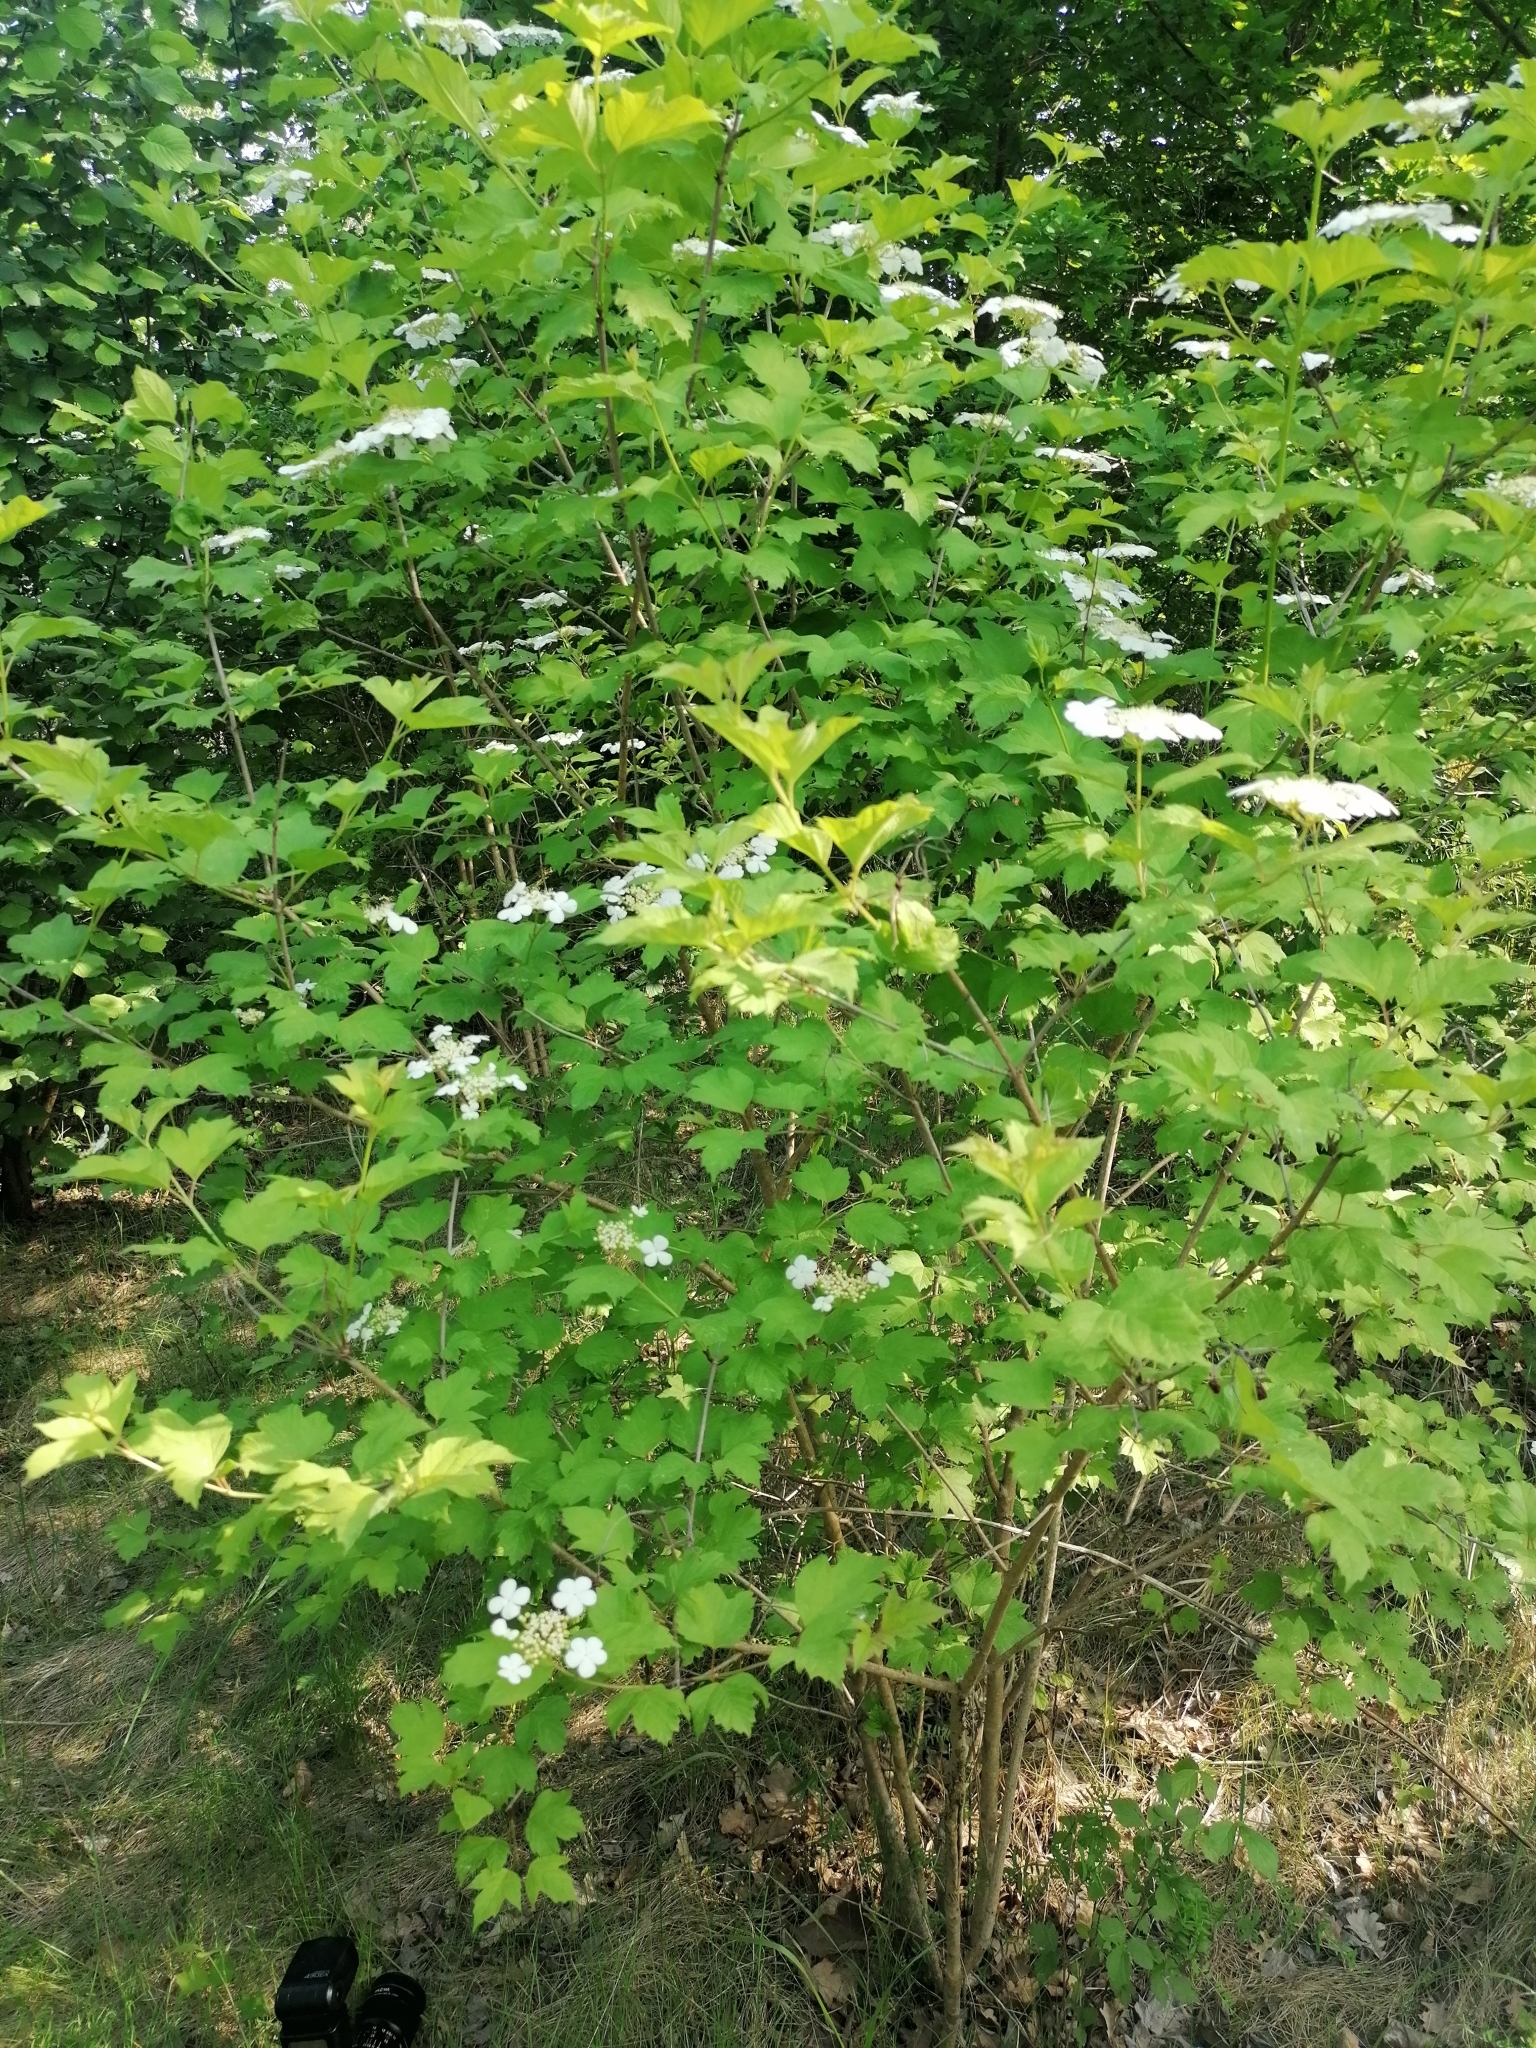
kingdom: Plantae
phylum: Tracheophyta
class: Magnoliopsida
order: Dipsacales
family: Viburnaceae
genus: Viburnum
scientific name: Viburnum opulus
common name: Guelder-rose
